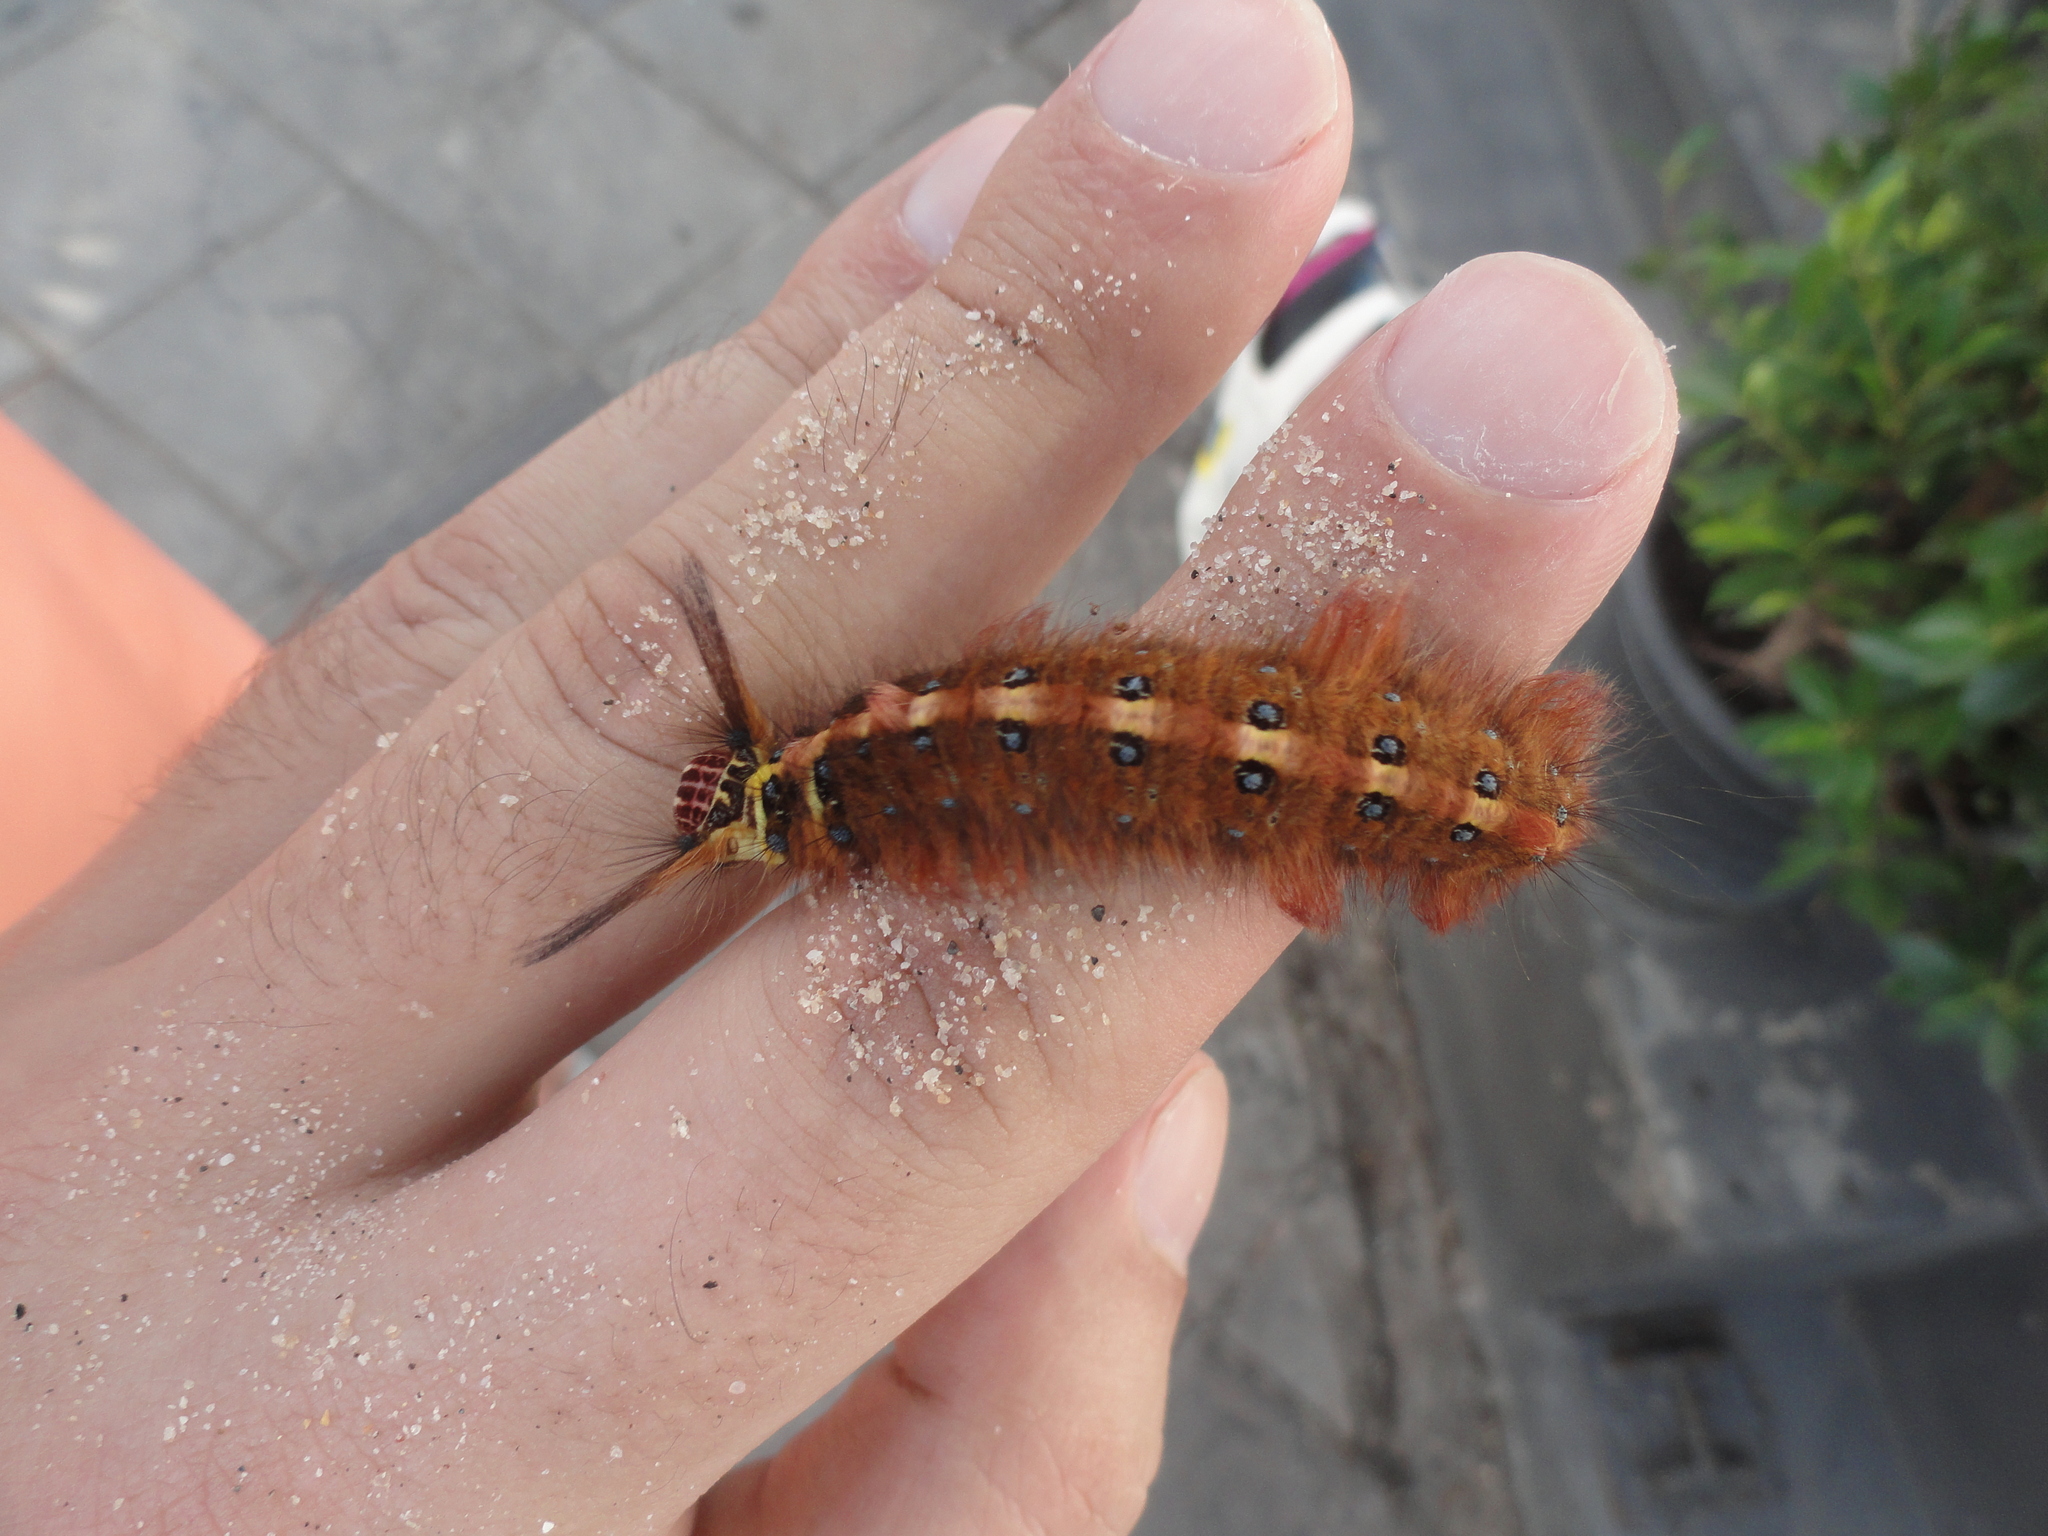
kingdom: Animalia
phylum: Arthropoda
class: Insecta
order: Lepidoptera
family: Lasiocampidae
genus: Trabala
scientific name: Trabala pallida
